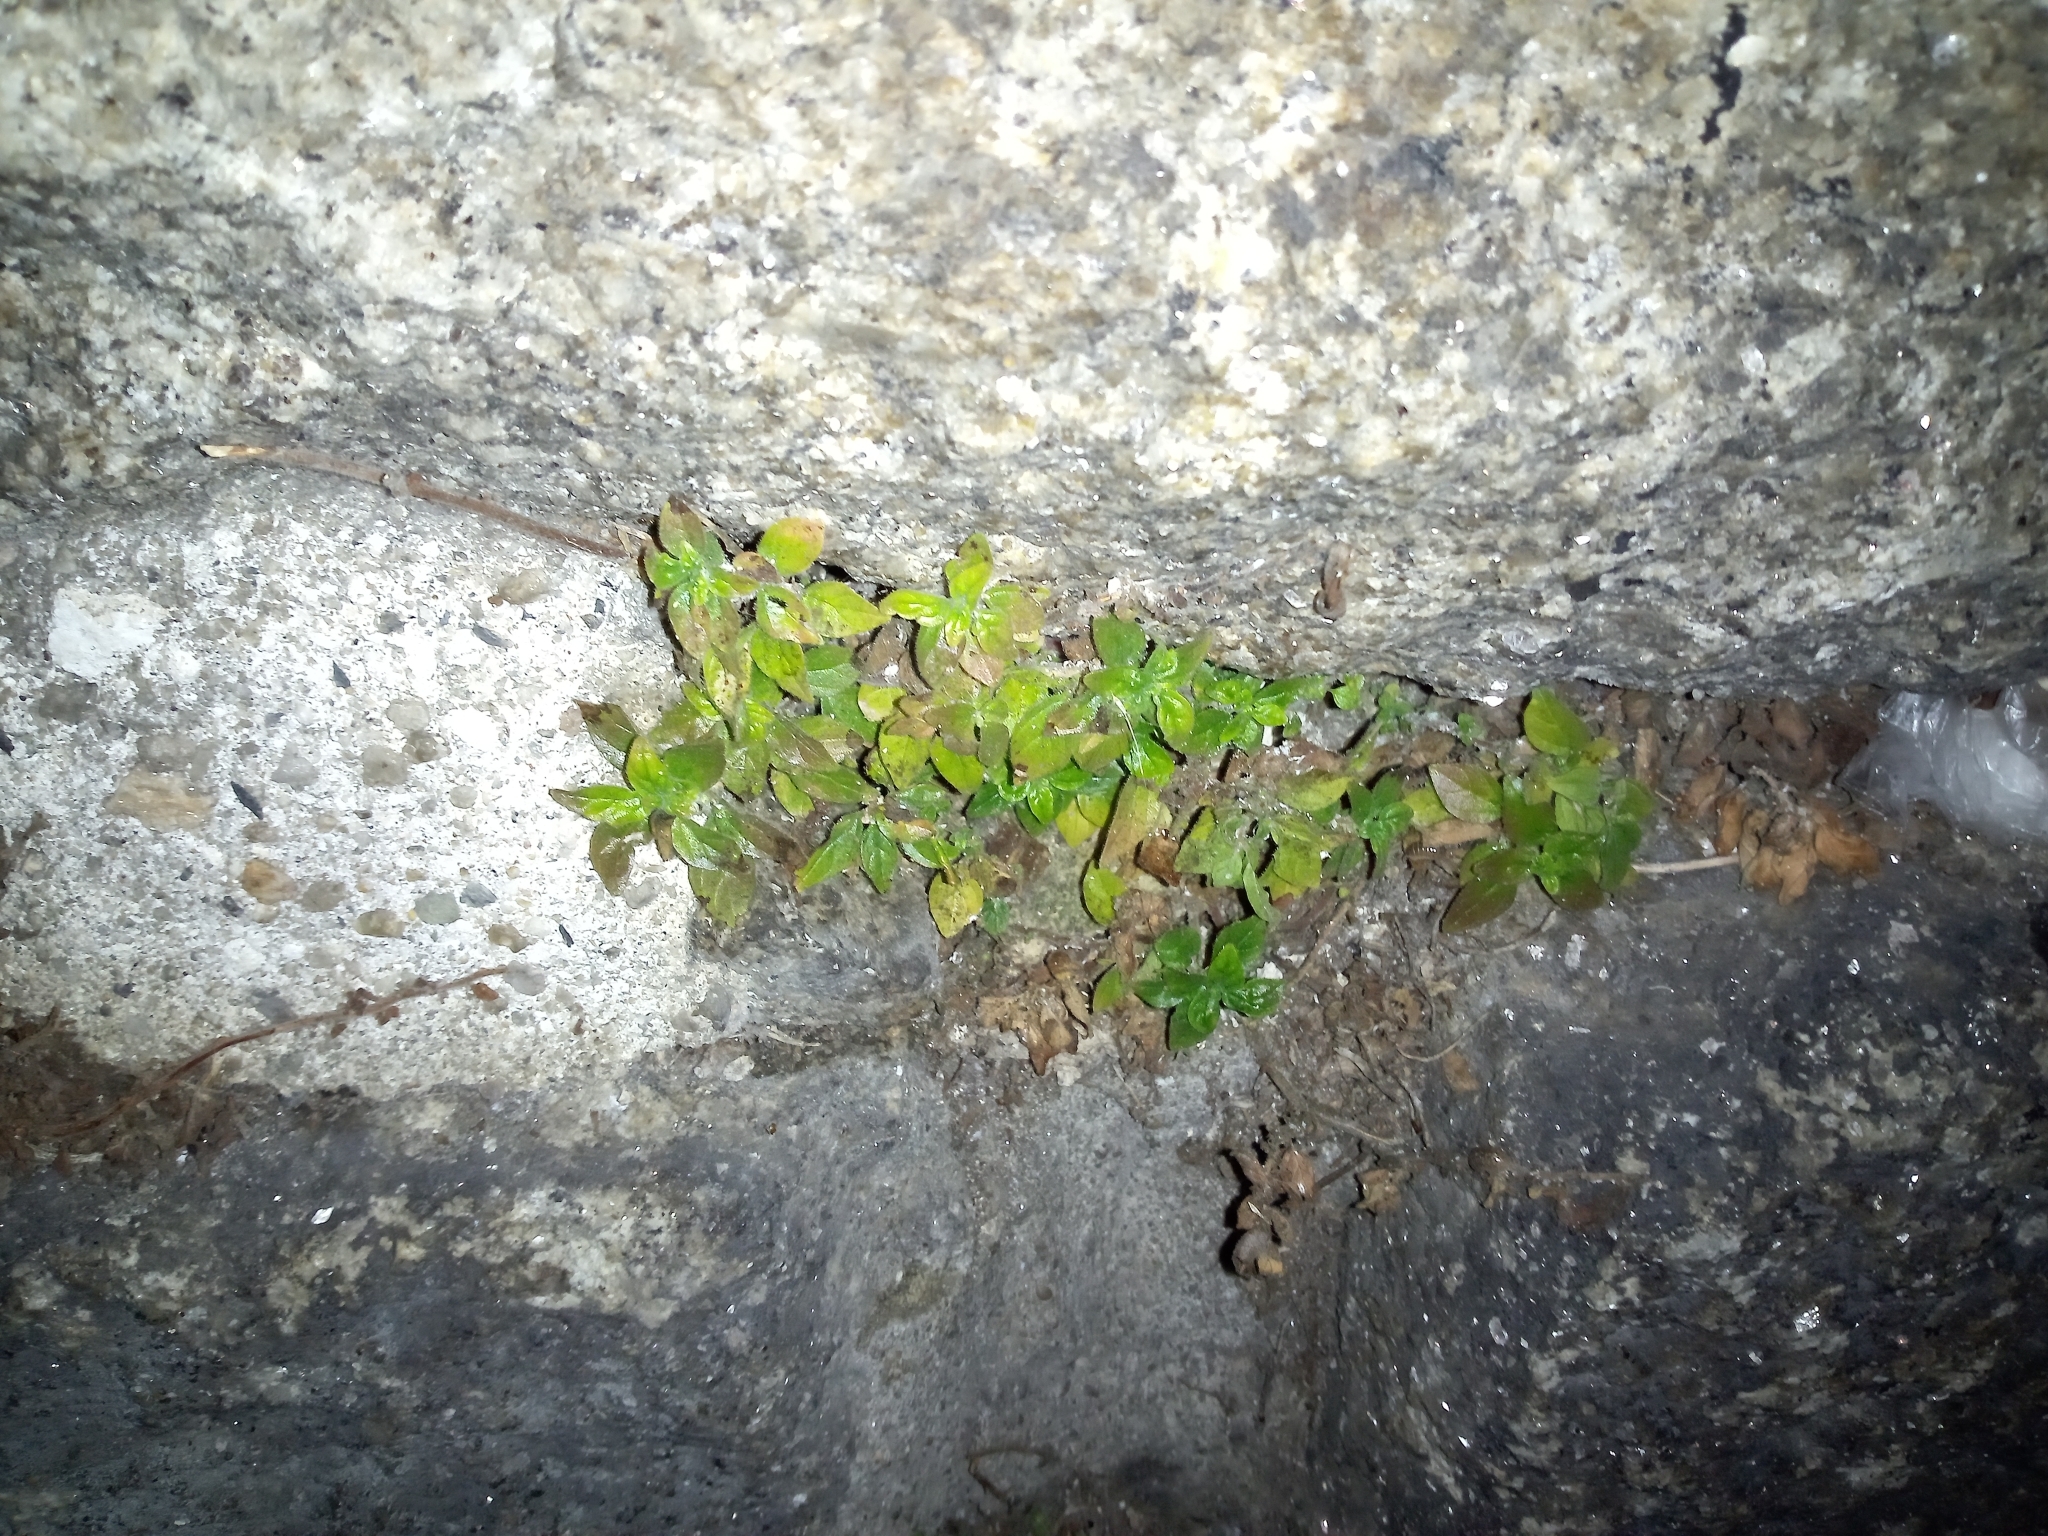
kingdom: Plantae
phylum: Tracheophyta
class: Magnoliopsida
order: Rosales
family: Urticaceae
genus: Parietaria
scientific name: Parietaria judaica
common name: Pellitory-of-the-wall
